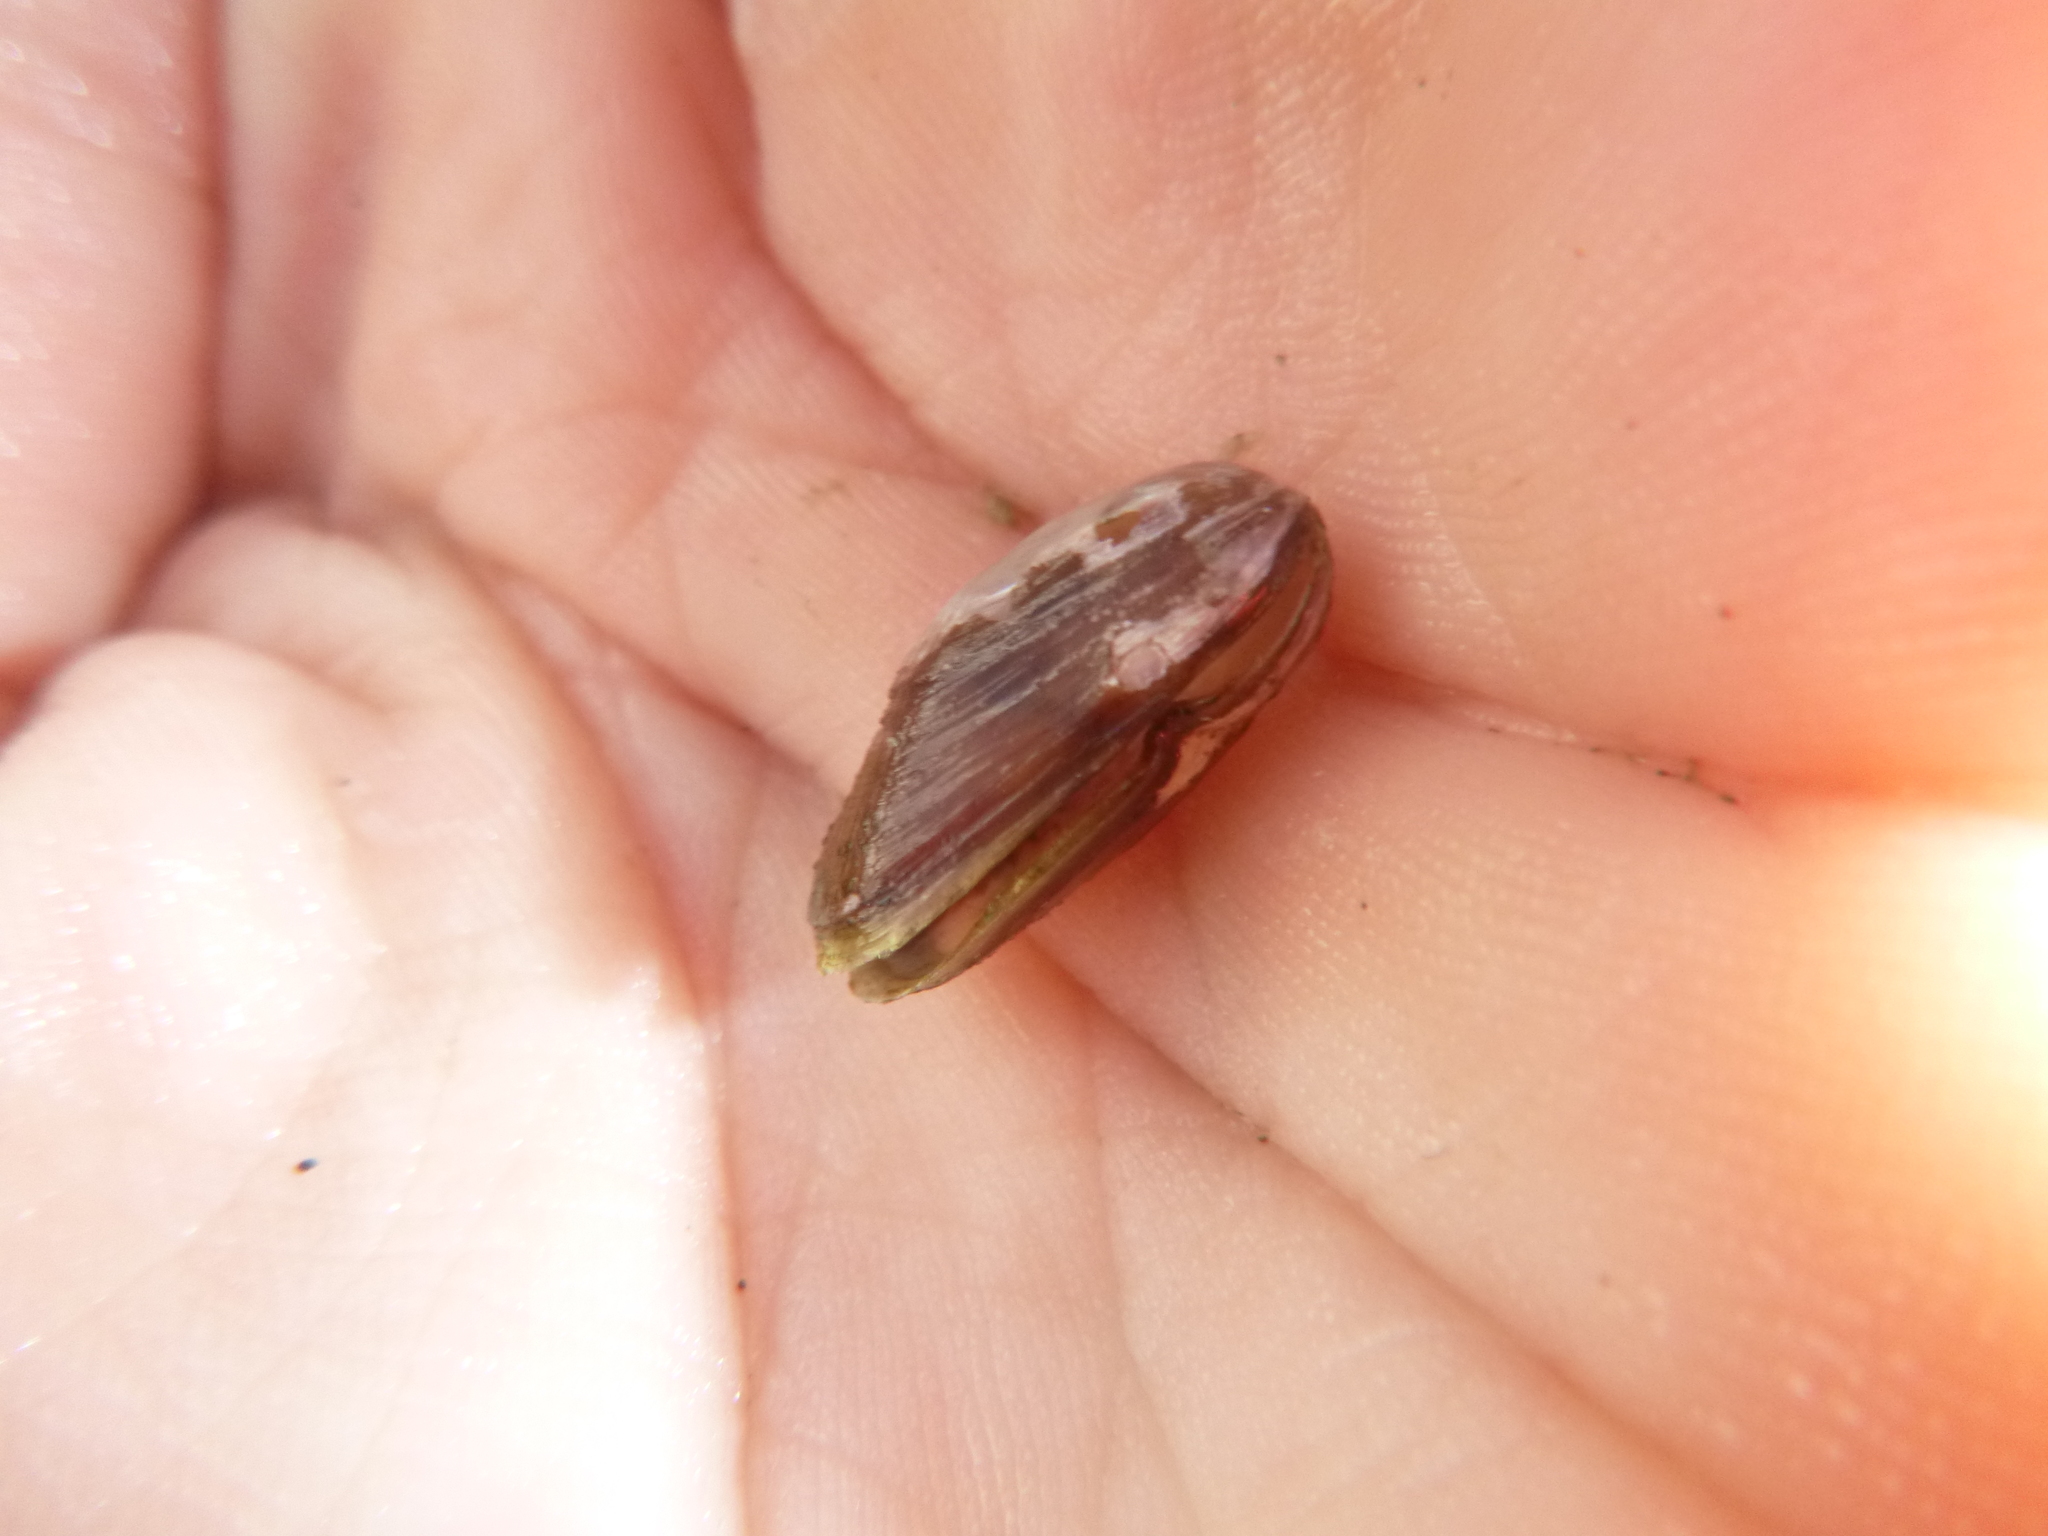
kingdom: Animalia
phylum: Mollusca
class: Bivalvia
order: Mytilida
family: Mytilidae
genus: Xenostrobus
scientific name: Xenostrobus securis
